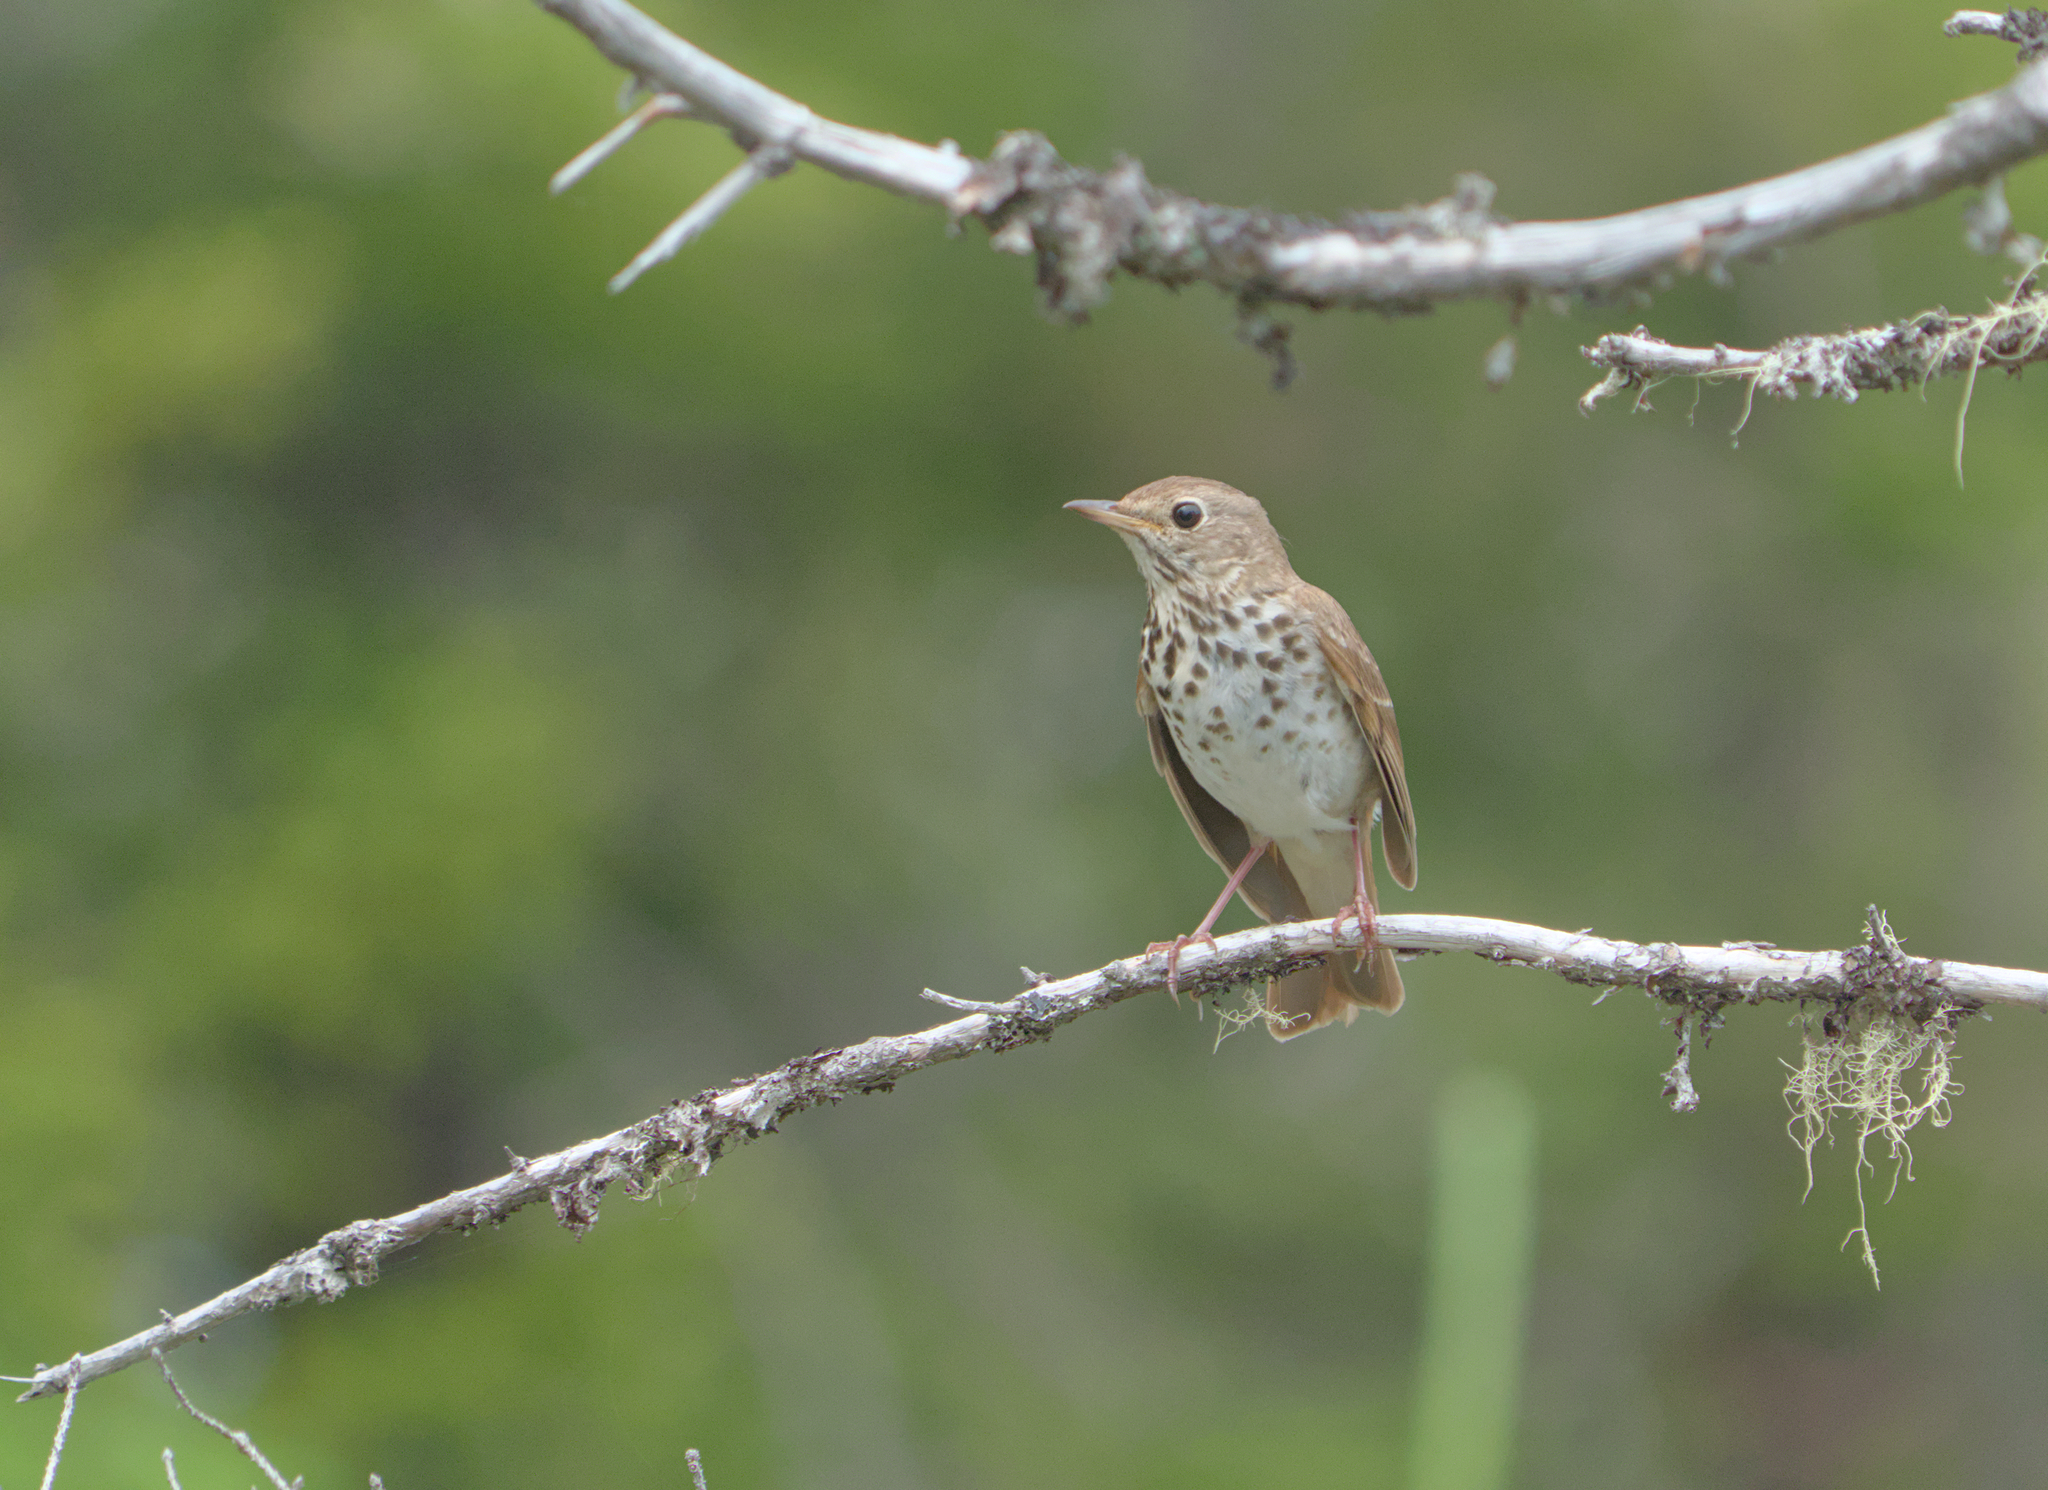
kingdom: Animalia
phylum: Chordata
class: Aves
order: Passeriformes
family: Turdidae
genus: Catharus
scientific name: Catharus guttatus
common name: Hermit thrush
